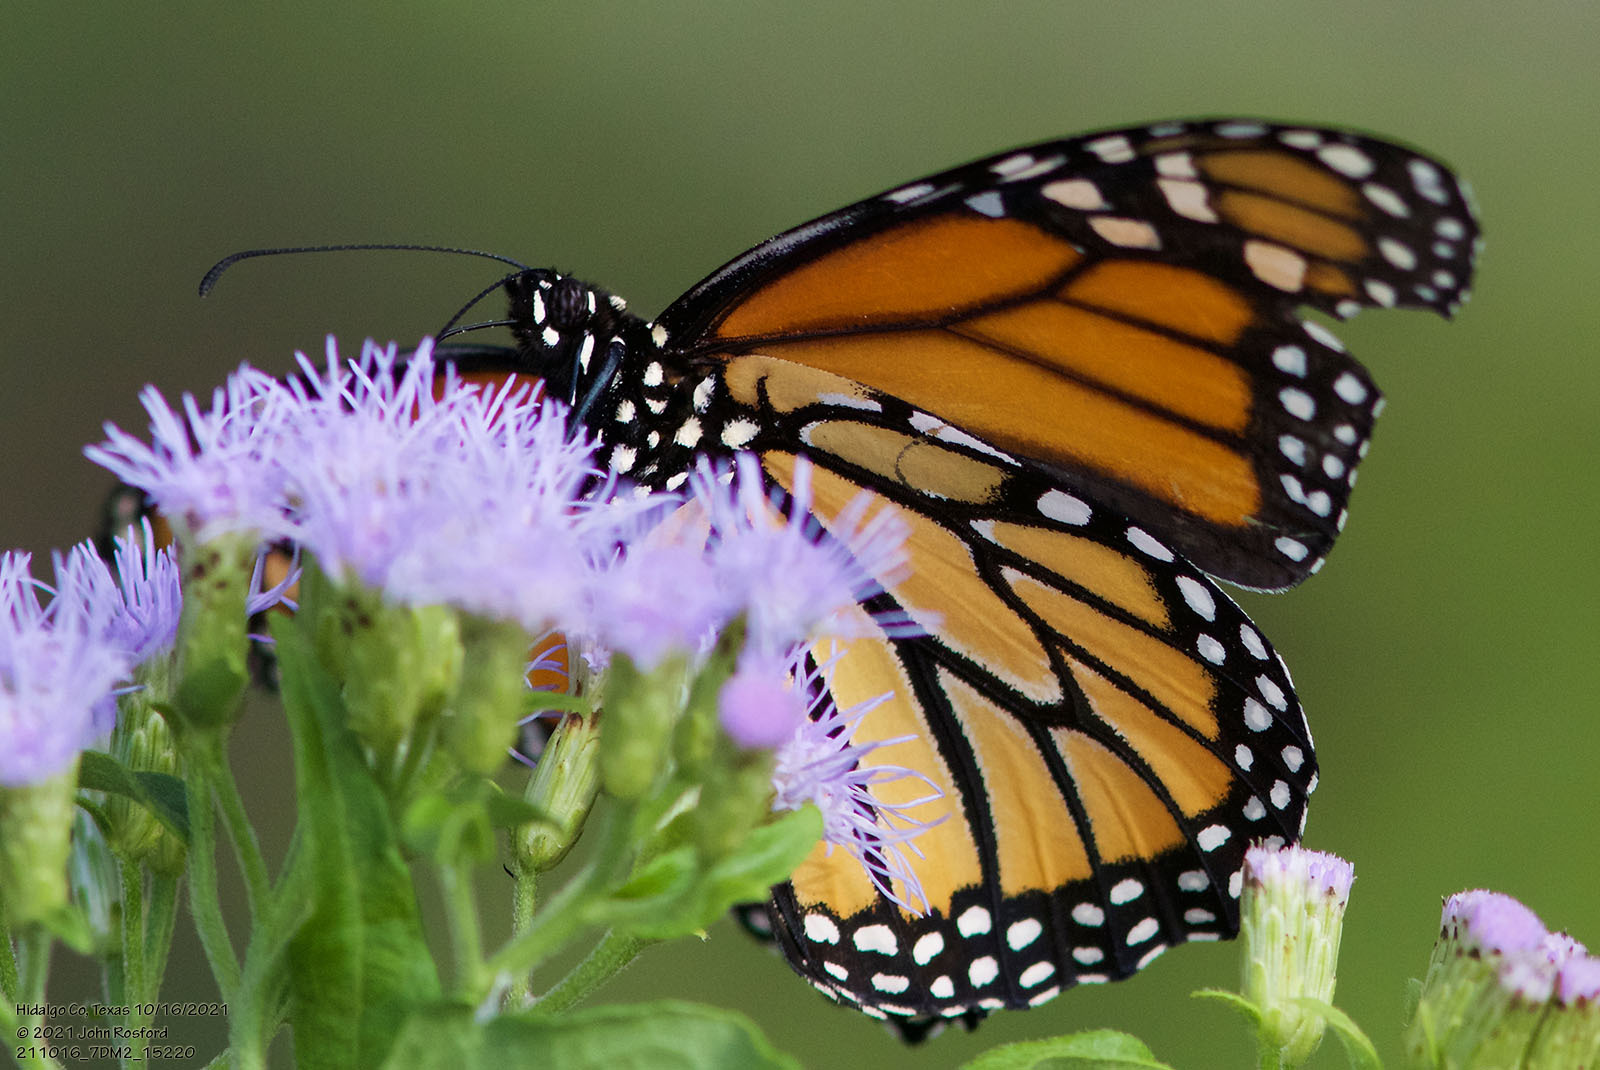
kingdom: Animalia
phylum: Arthropoda
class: Insecta
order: Lepidoptera
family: Nymphalidae
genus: Danaus
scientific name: Danaus plexippus
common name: Monarch
